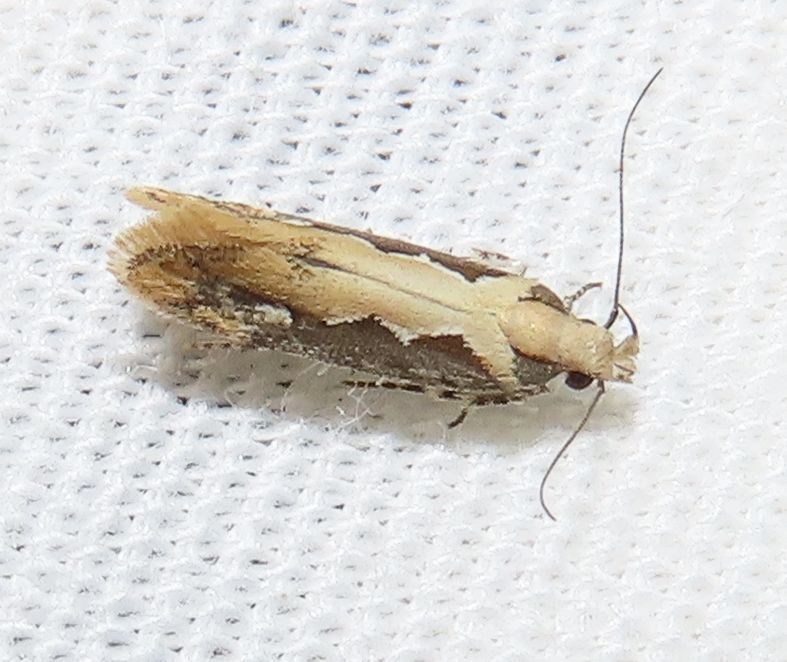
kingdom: Animalia
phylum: Arthropoda
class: Insecta
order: Lepidoptera
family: Gelechiidae
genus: Ornativalva
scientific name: Ornativalva erubescens
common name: Moth
